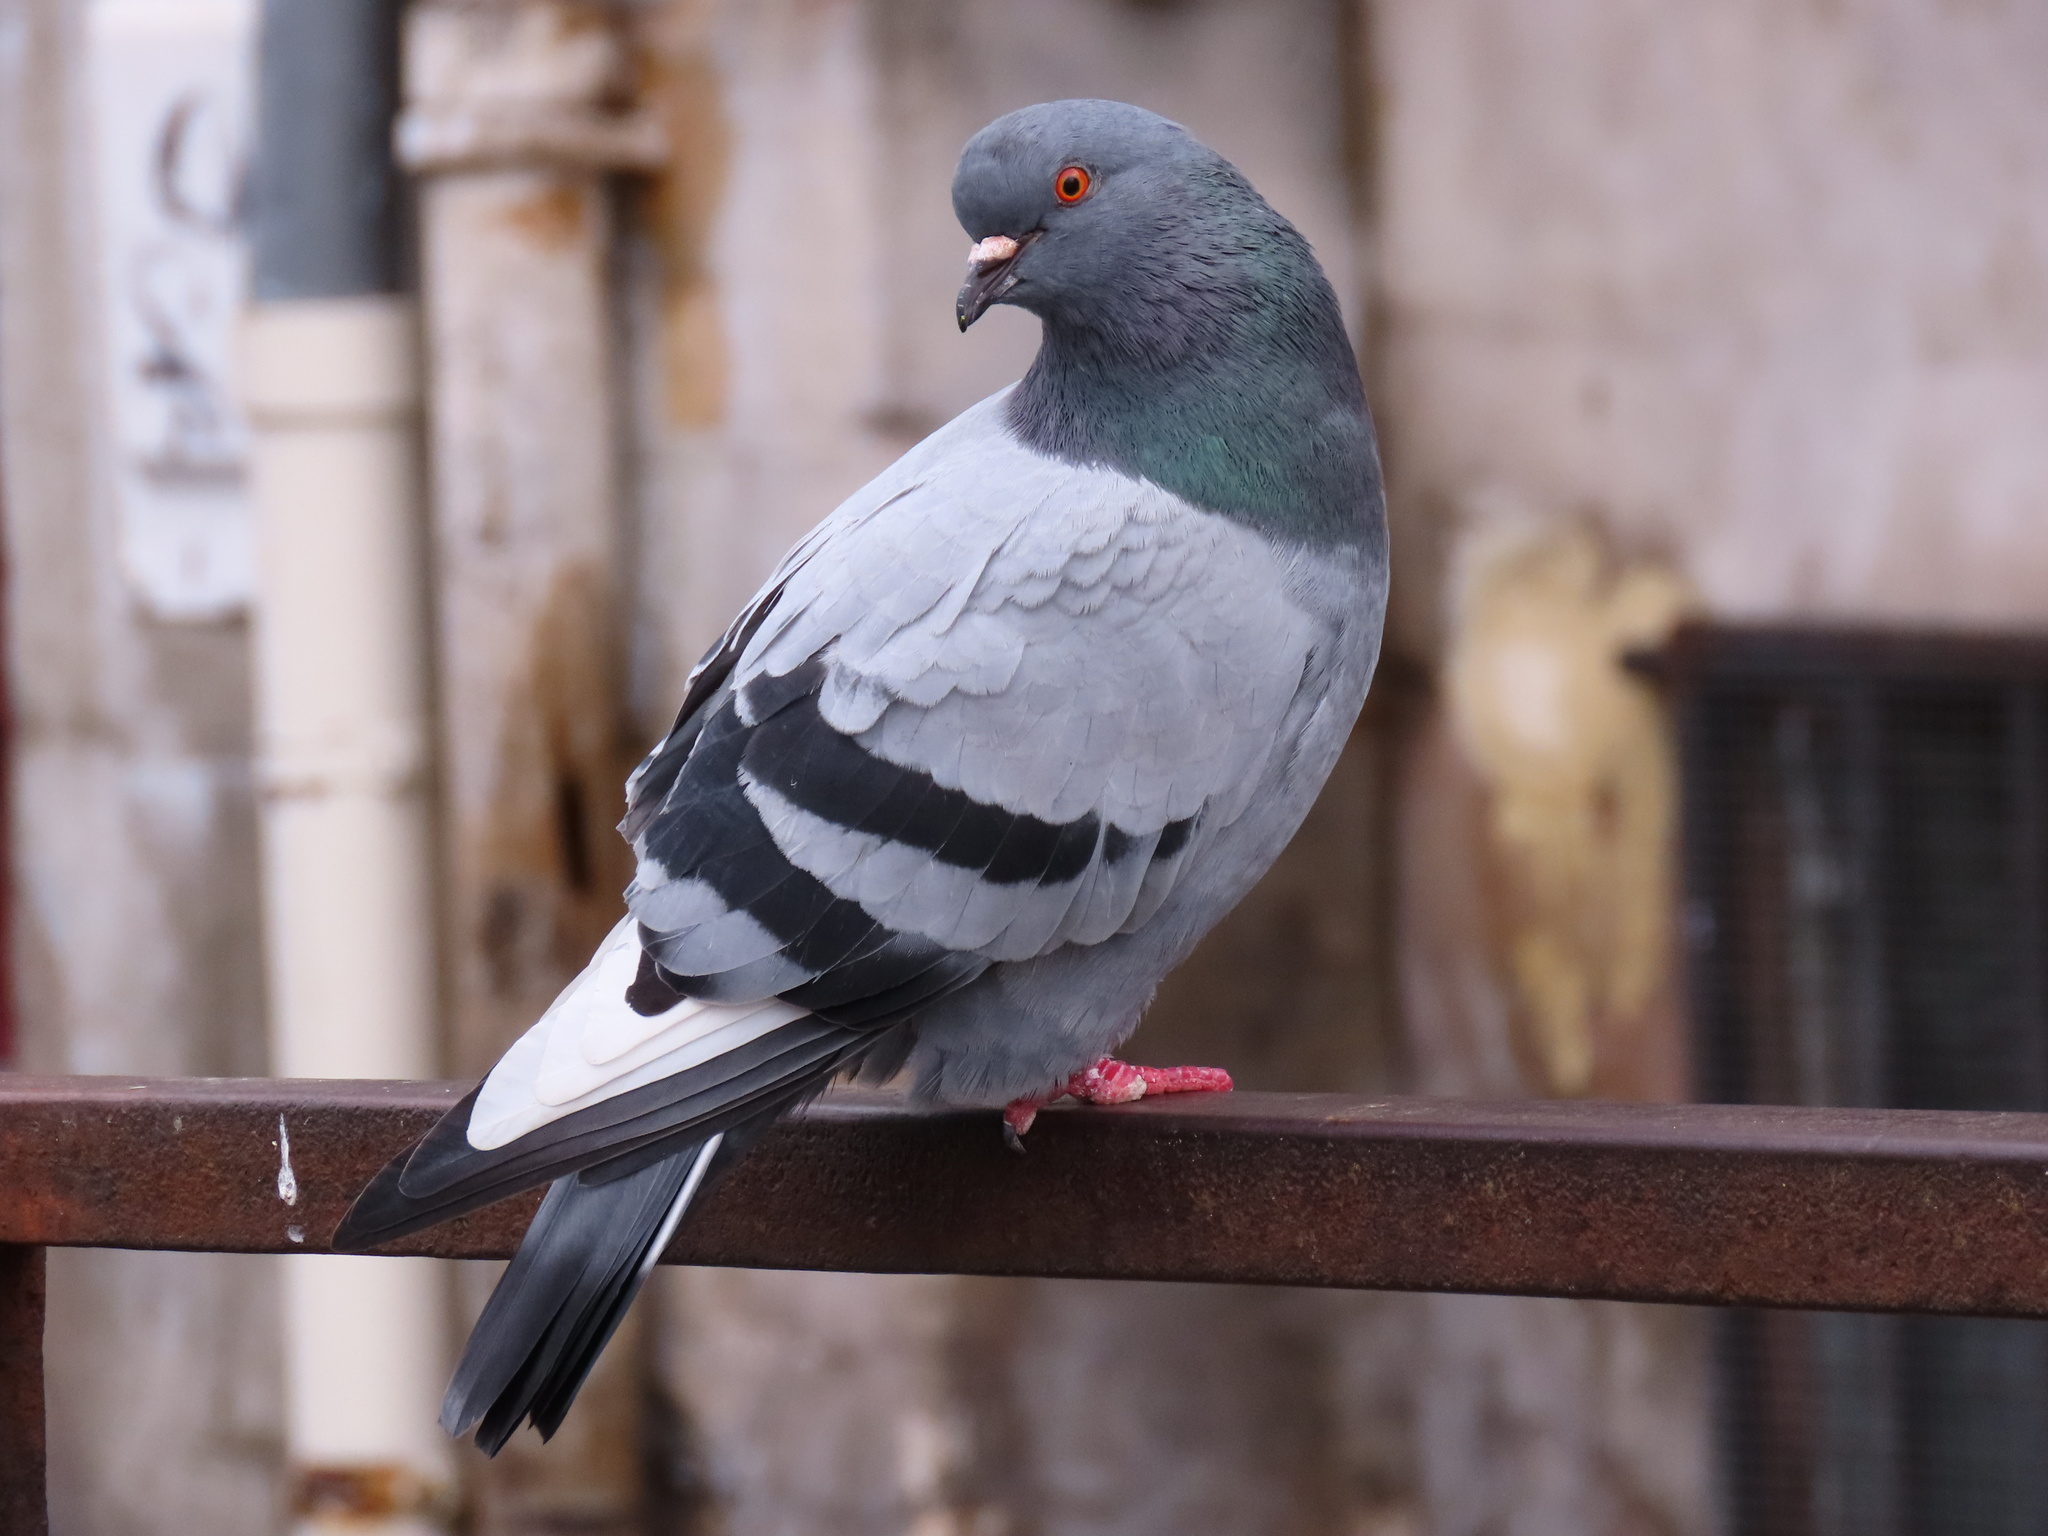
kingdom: Animalia
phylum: Chordata
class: Aves
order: Columbiformes
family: Columbidae
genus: Columba
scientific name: Columba livia
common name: Rock pigeon
